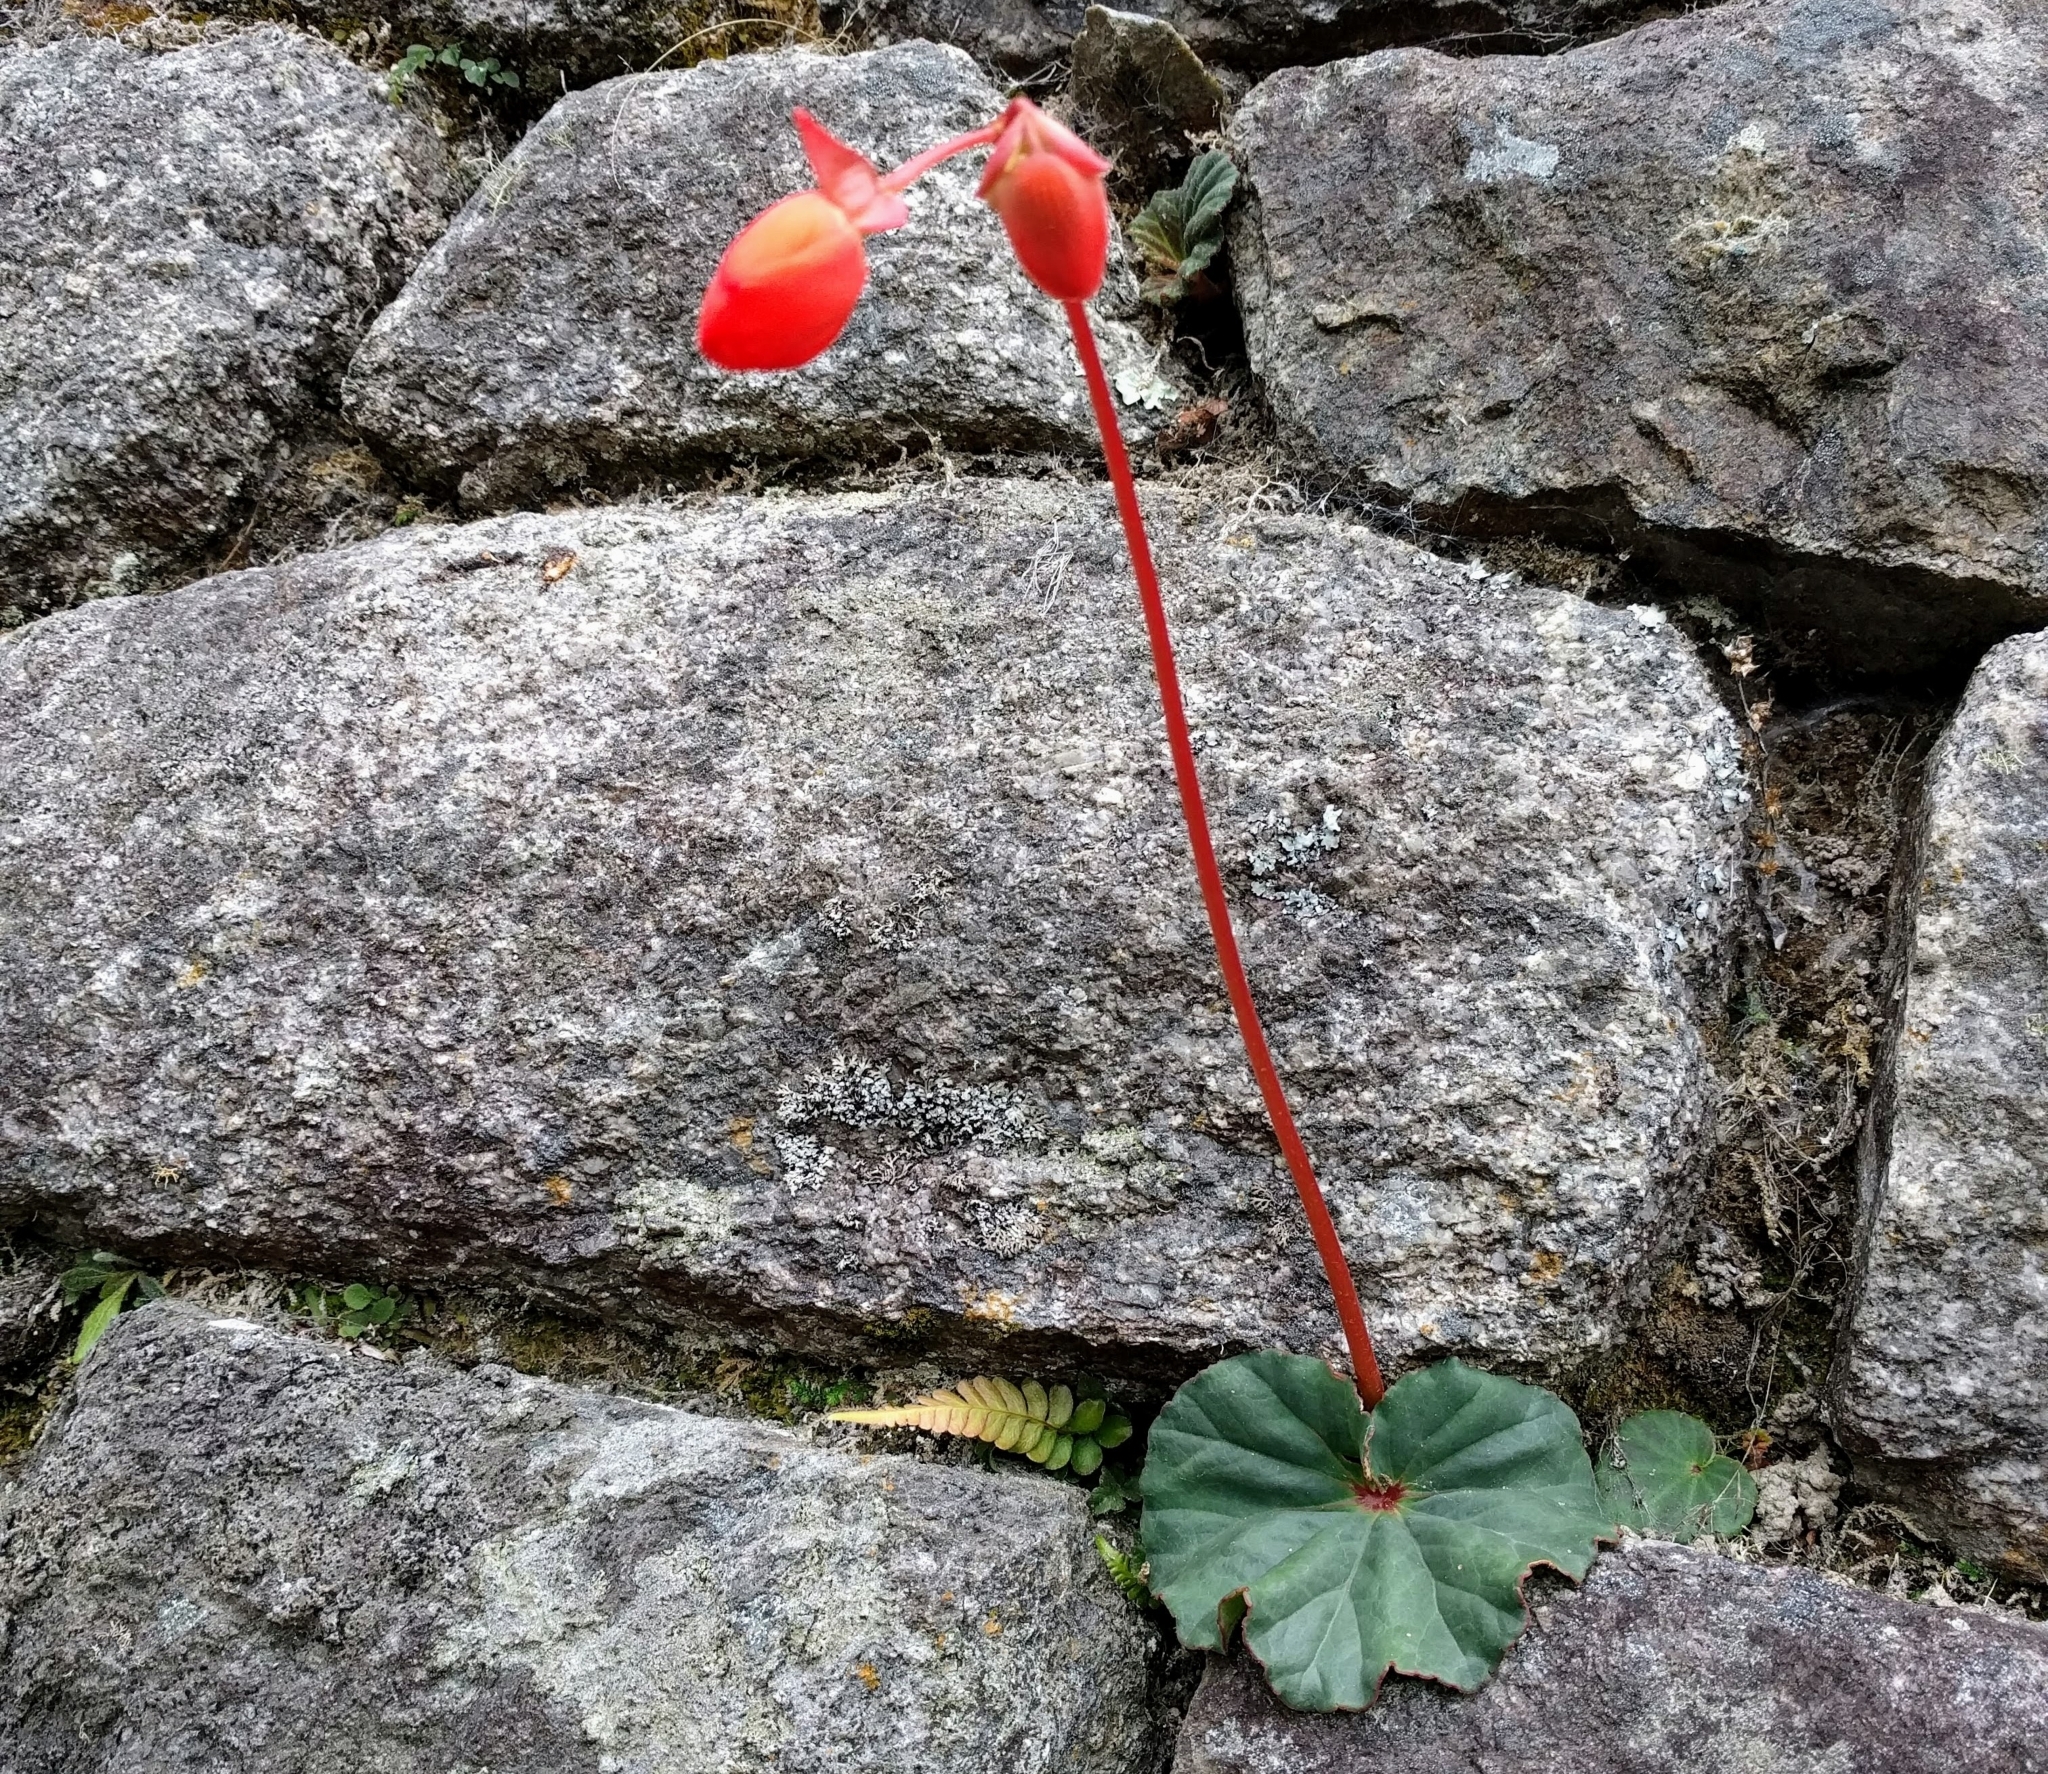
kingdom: Plantae
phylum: Tracheophyta
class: Magnoliopsida
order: Cucurbitales
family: Begoniaceae
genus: Begonia
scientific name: Begonia veitchii
